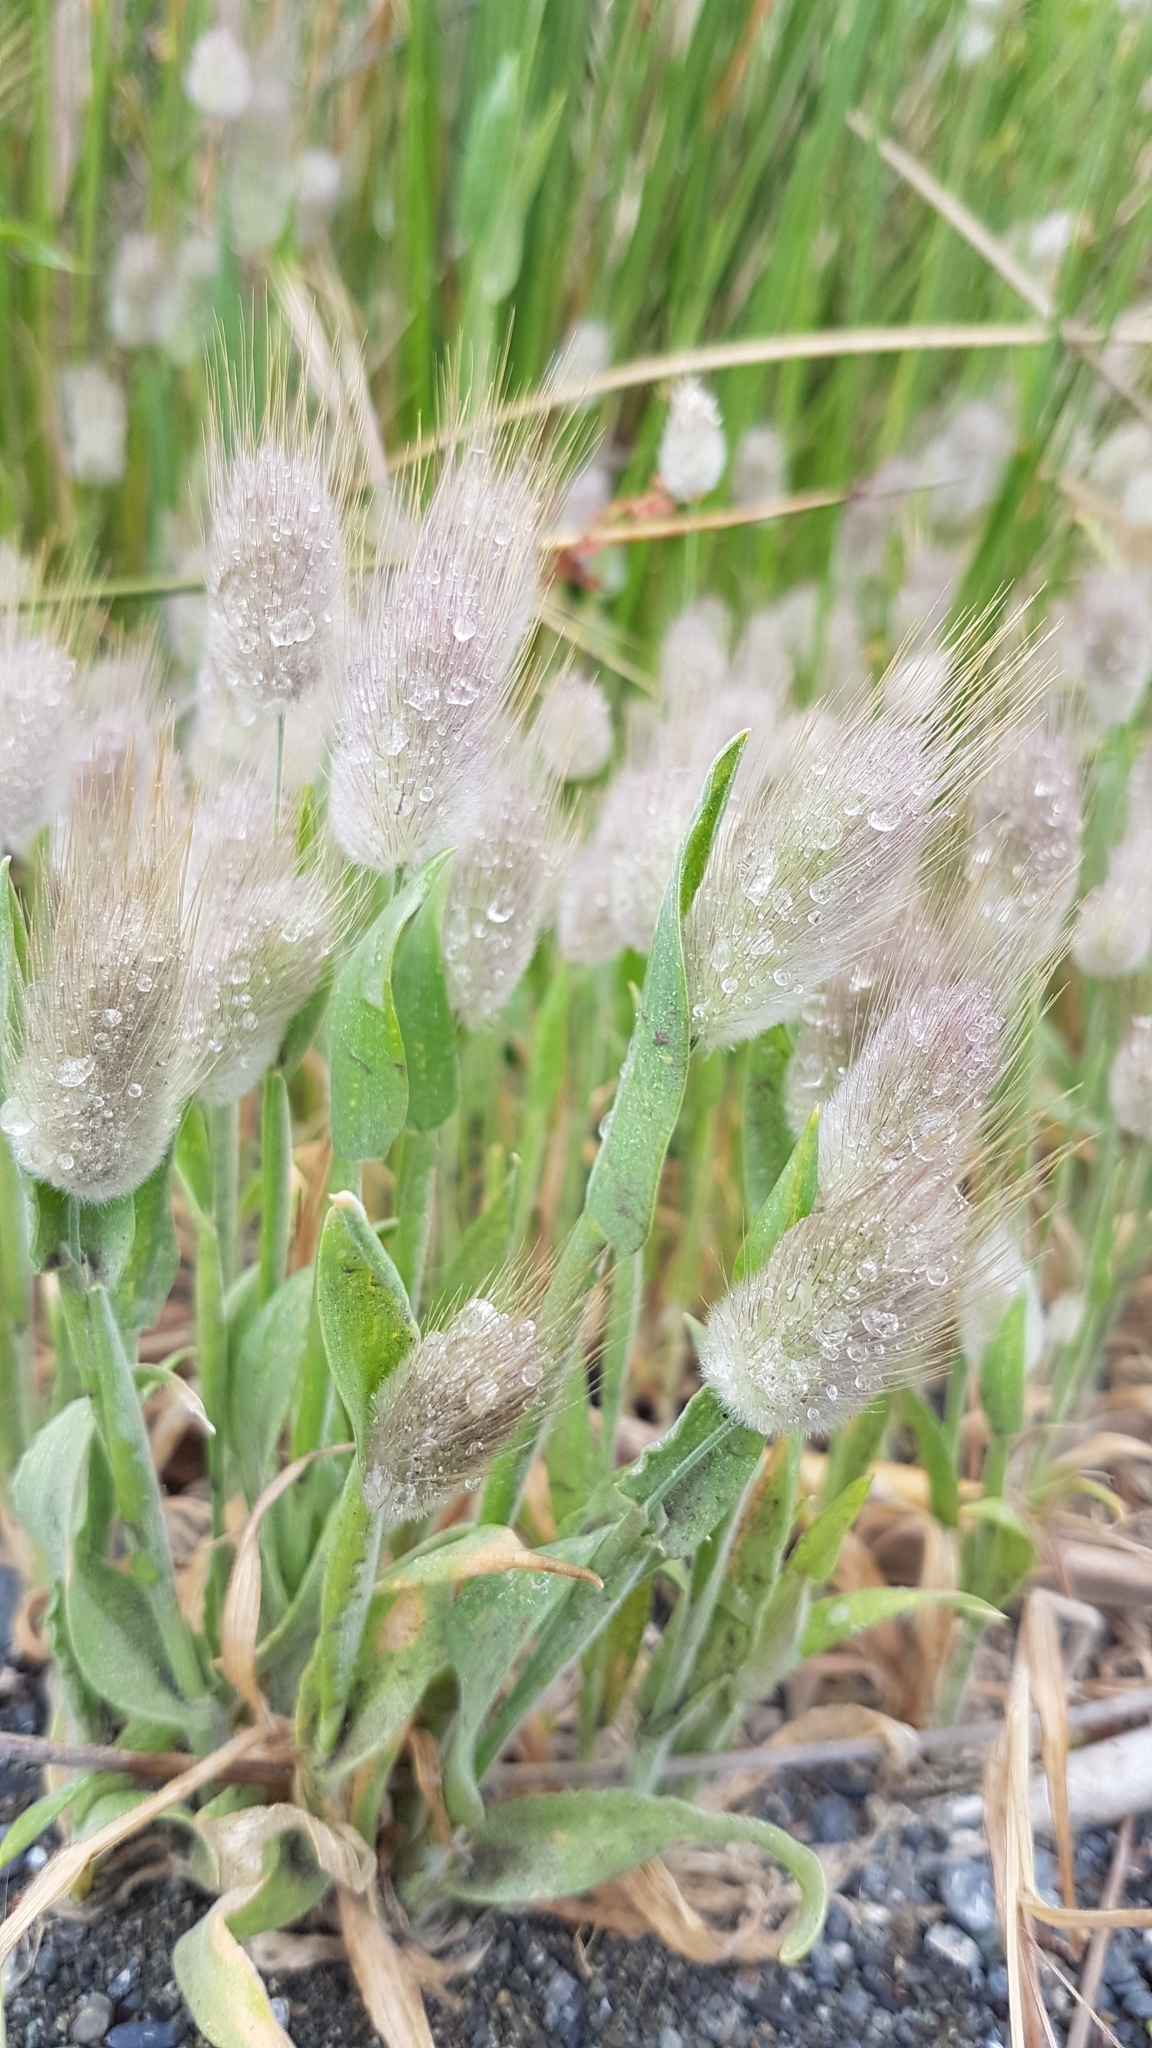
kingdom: Plantae
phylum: Tracheophyta
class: Liliopsida
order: Poales
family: Poaceae
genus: Lagurus
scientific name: Lagurus ovatus
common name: Hare's-tail
